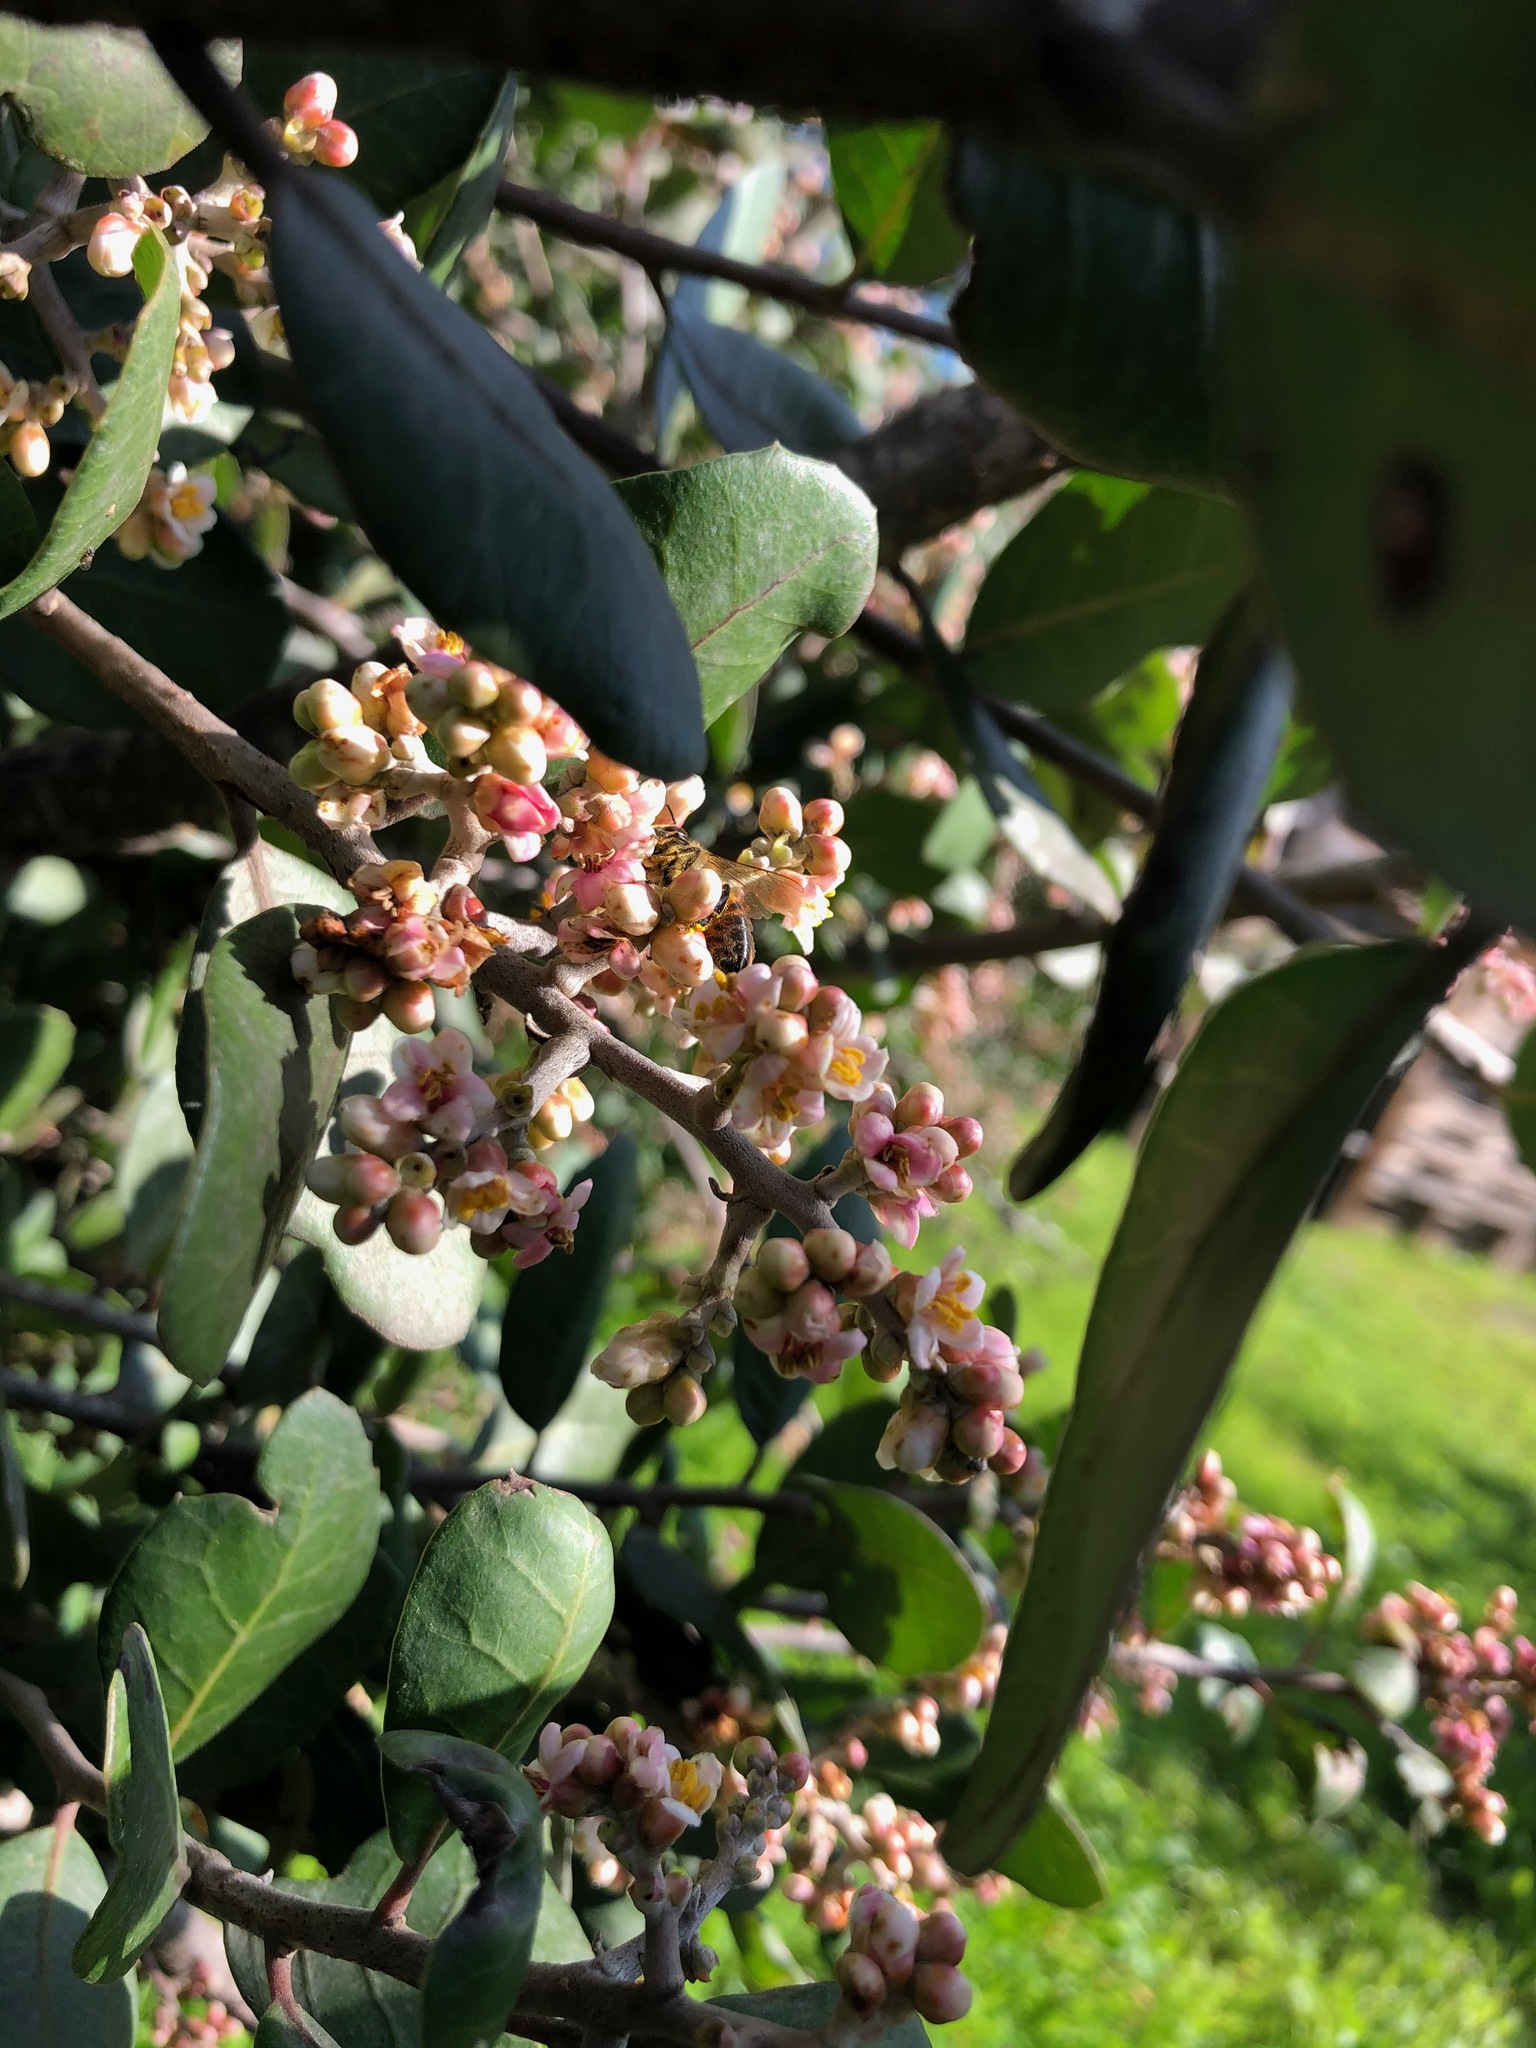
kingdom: Animalia
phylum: Arthropoda
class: Insecta
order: Hymenoptera
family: Apidae
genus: Apis
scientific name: Apis mellifera
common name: Honey bee
